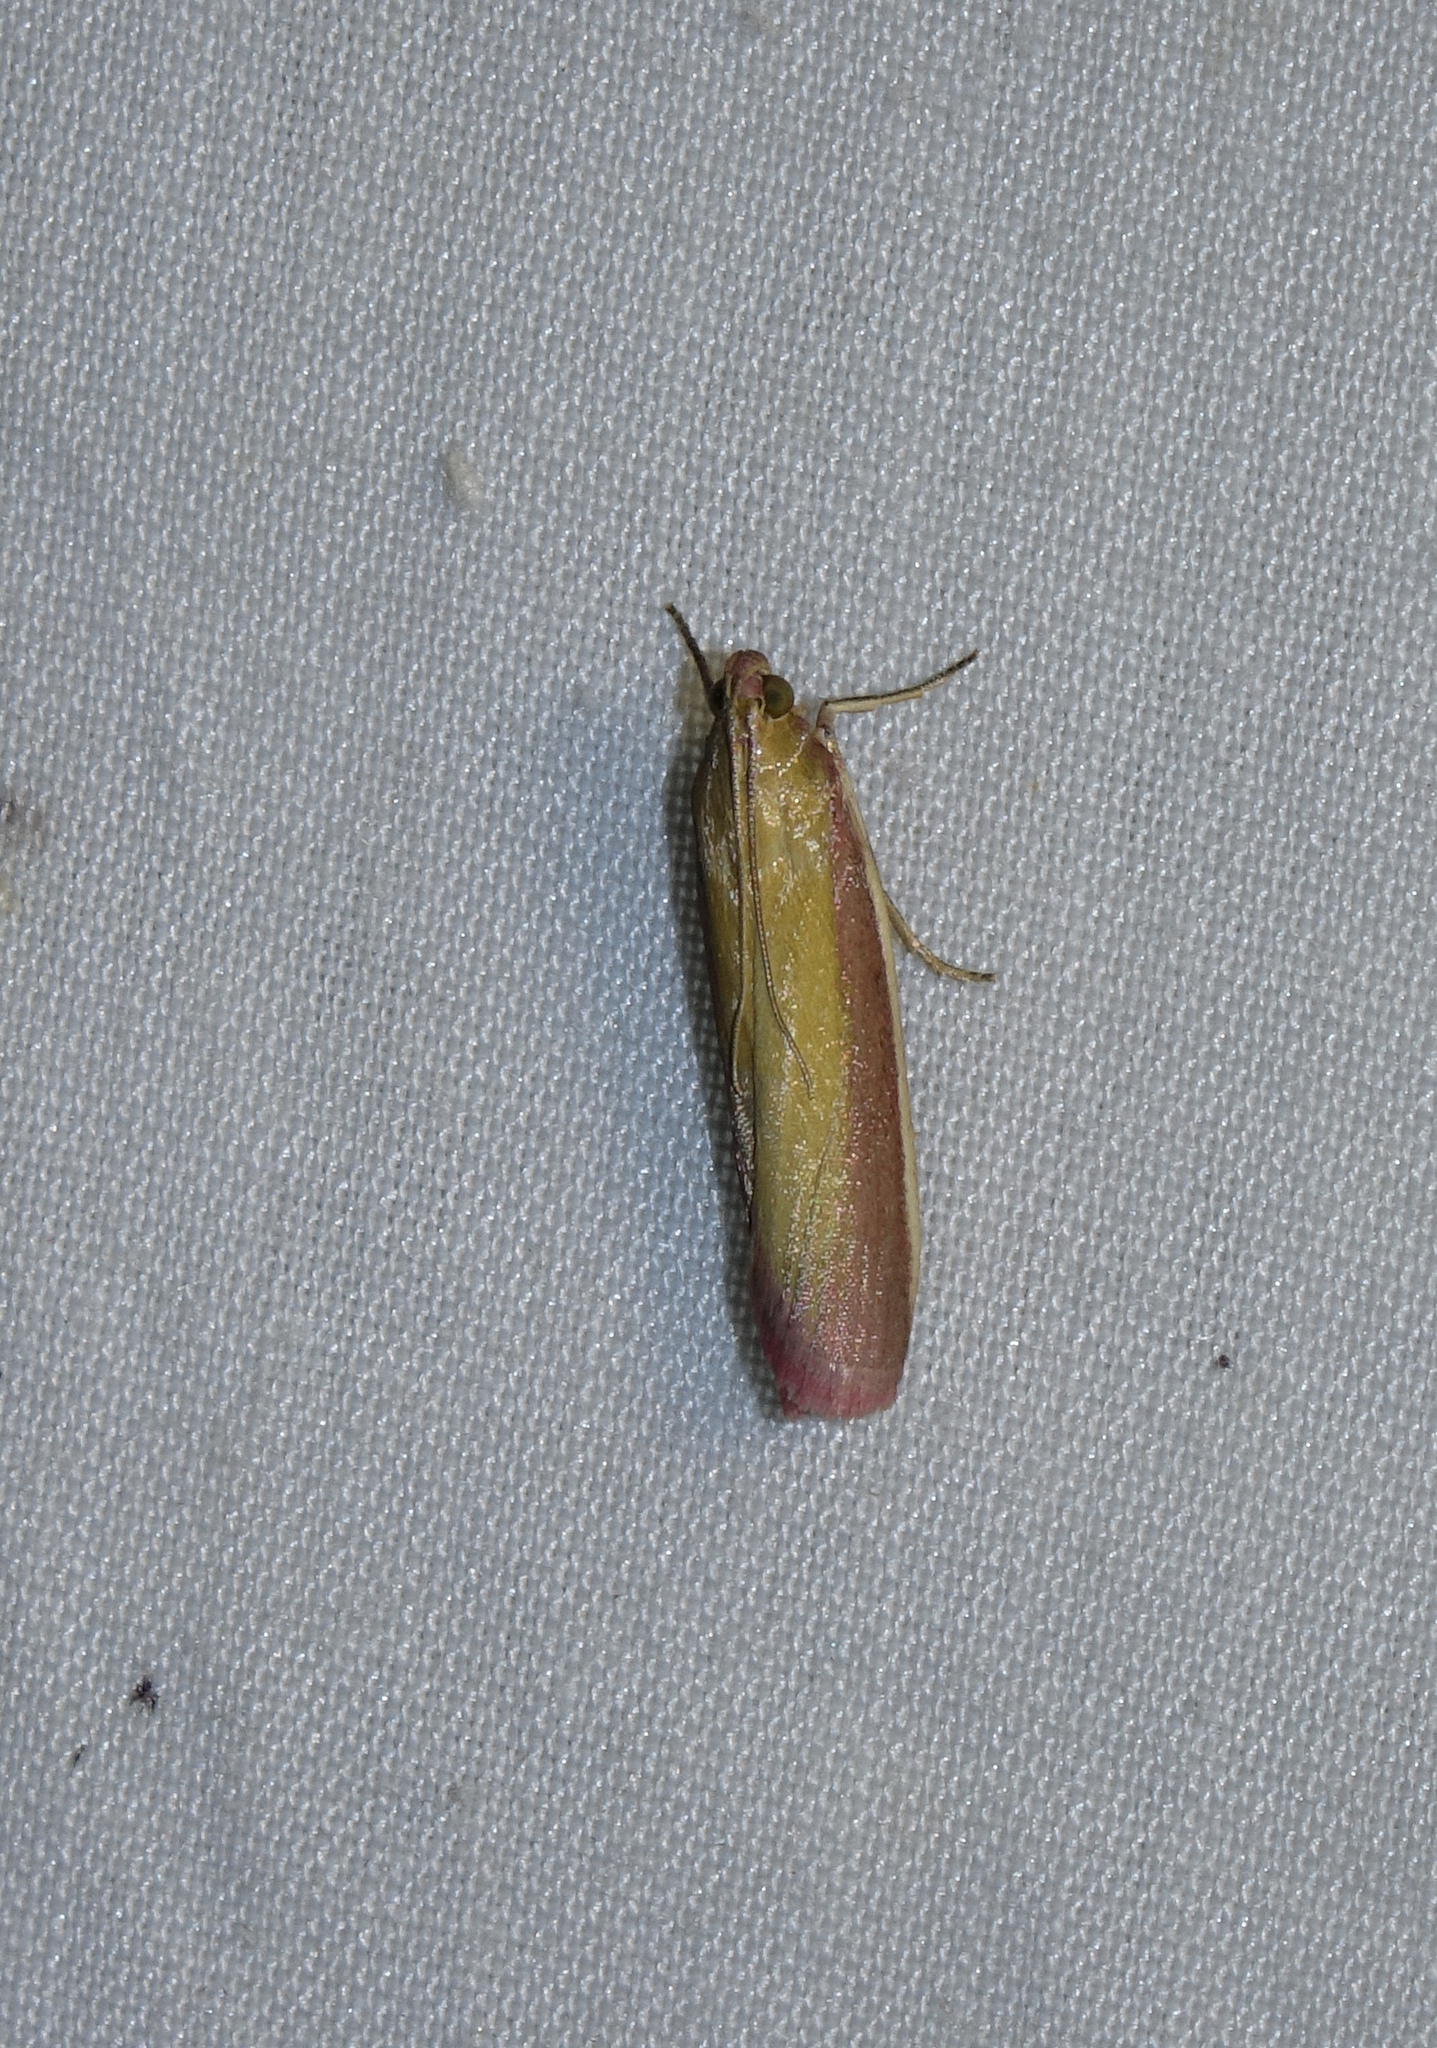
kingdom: Animalia
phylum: Arthropoda
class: Insecta
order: Lepidoptera
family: Pyralidae
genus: Oncocera
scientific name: Oncocera semirubella
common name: Rosy-striped knot-horn
